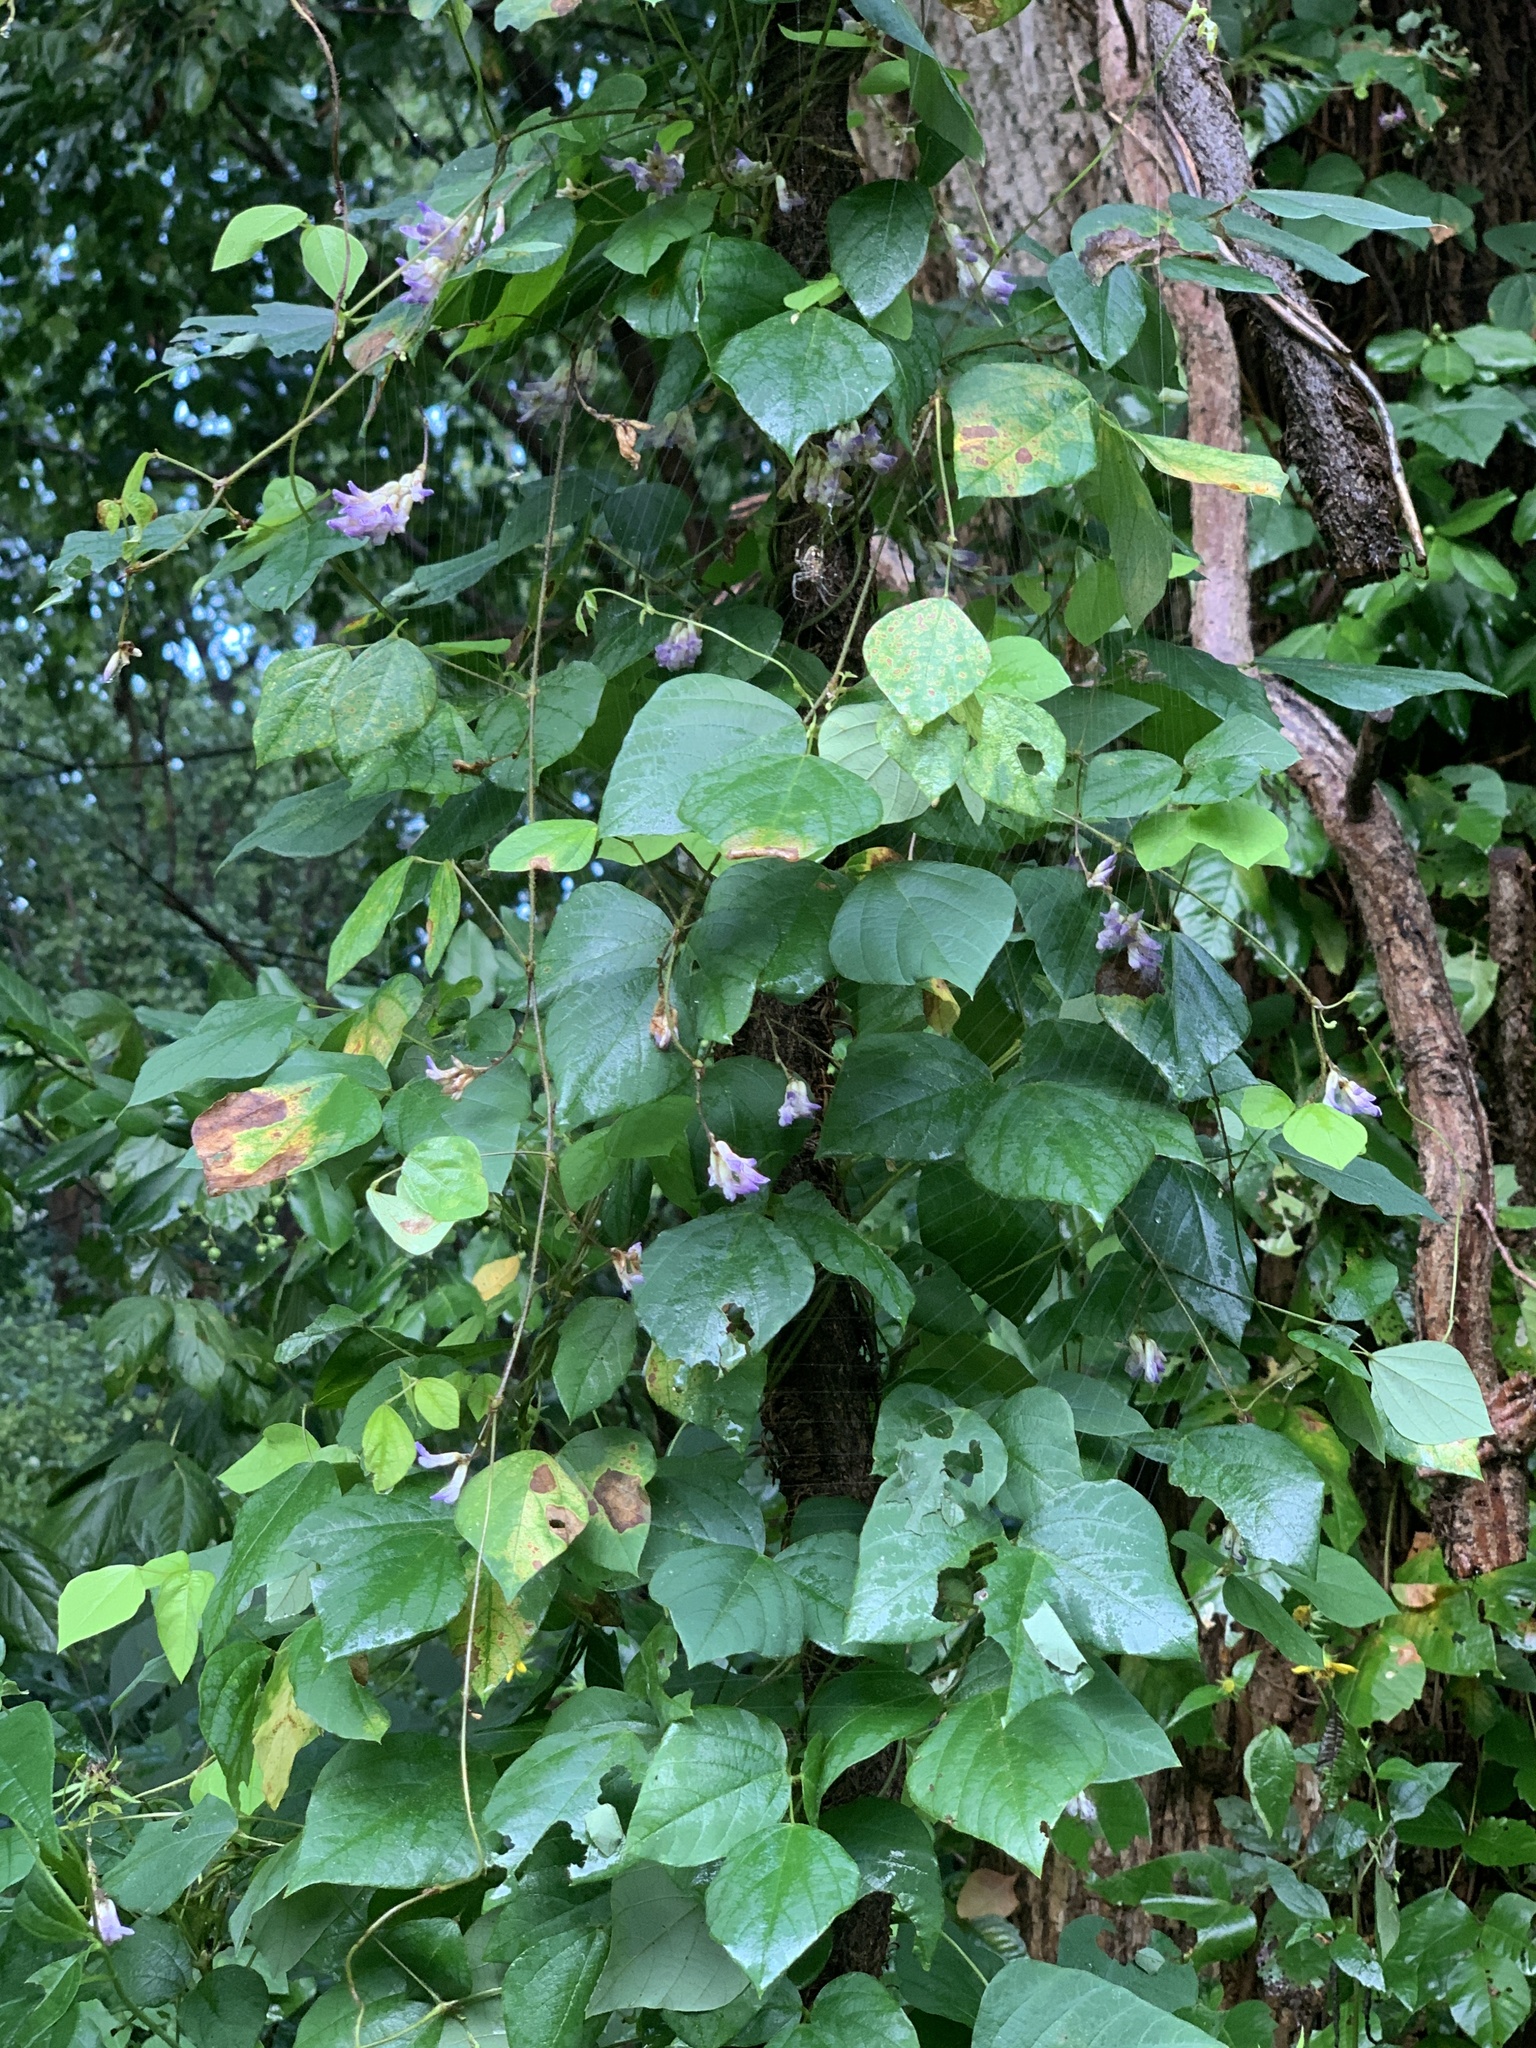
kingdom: Plantae
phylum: Tracheophyta
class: Magnoliopsida
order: Fabales
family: Fabaceae
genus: Amphicarpaea
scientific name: Amphicarpaea bracteata
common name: American hog peanut
